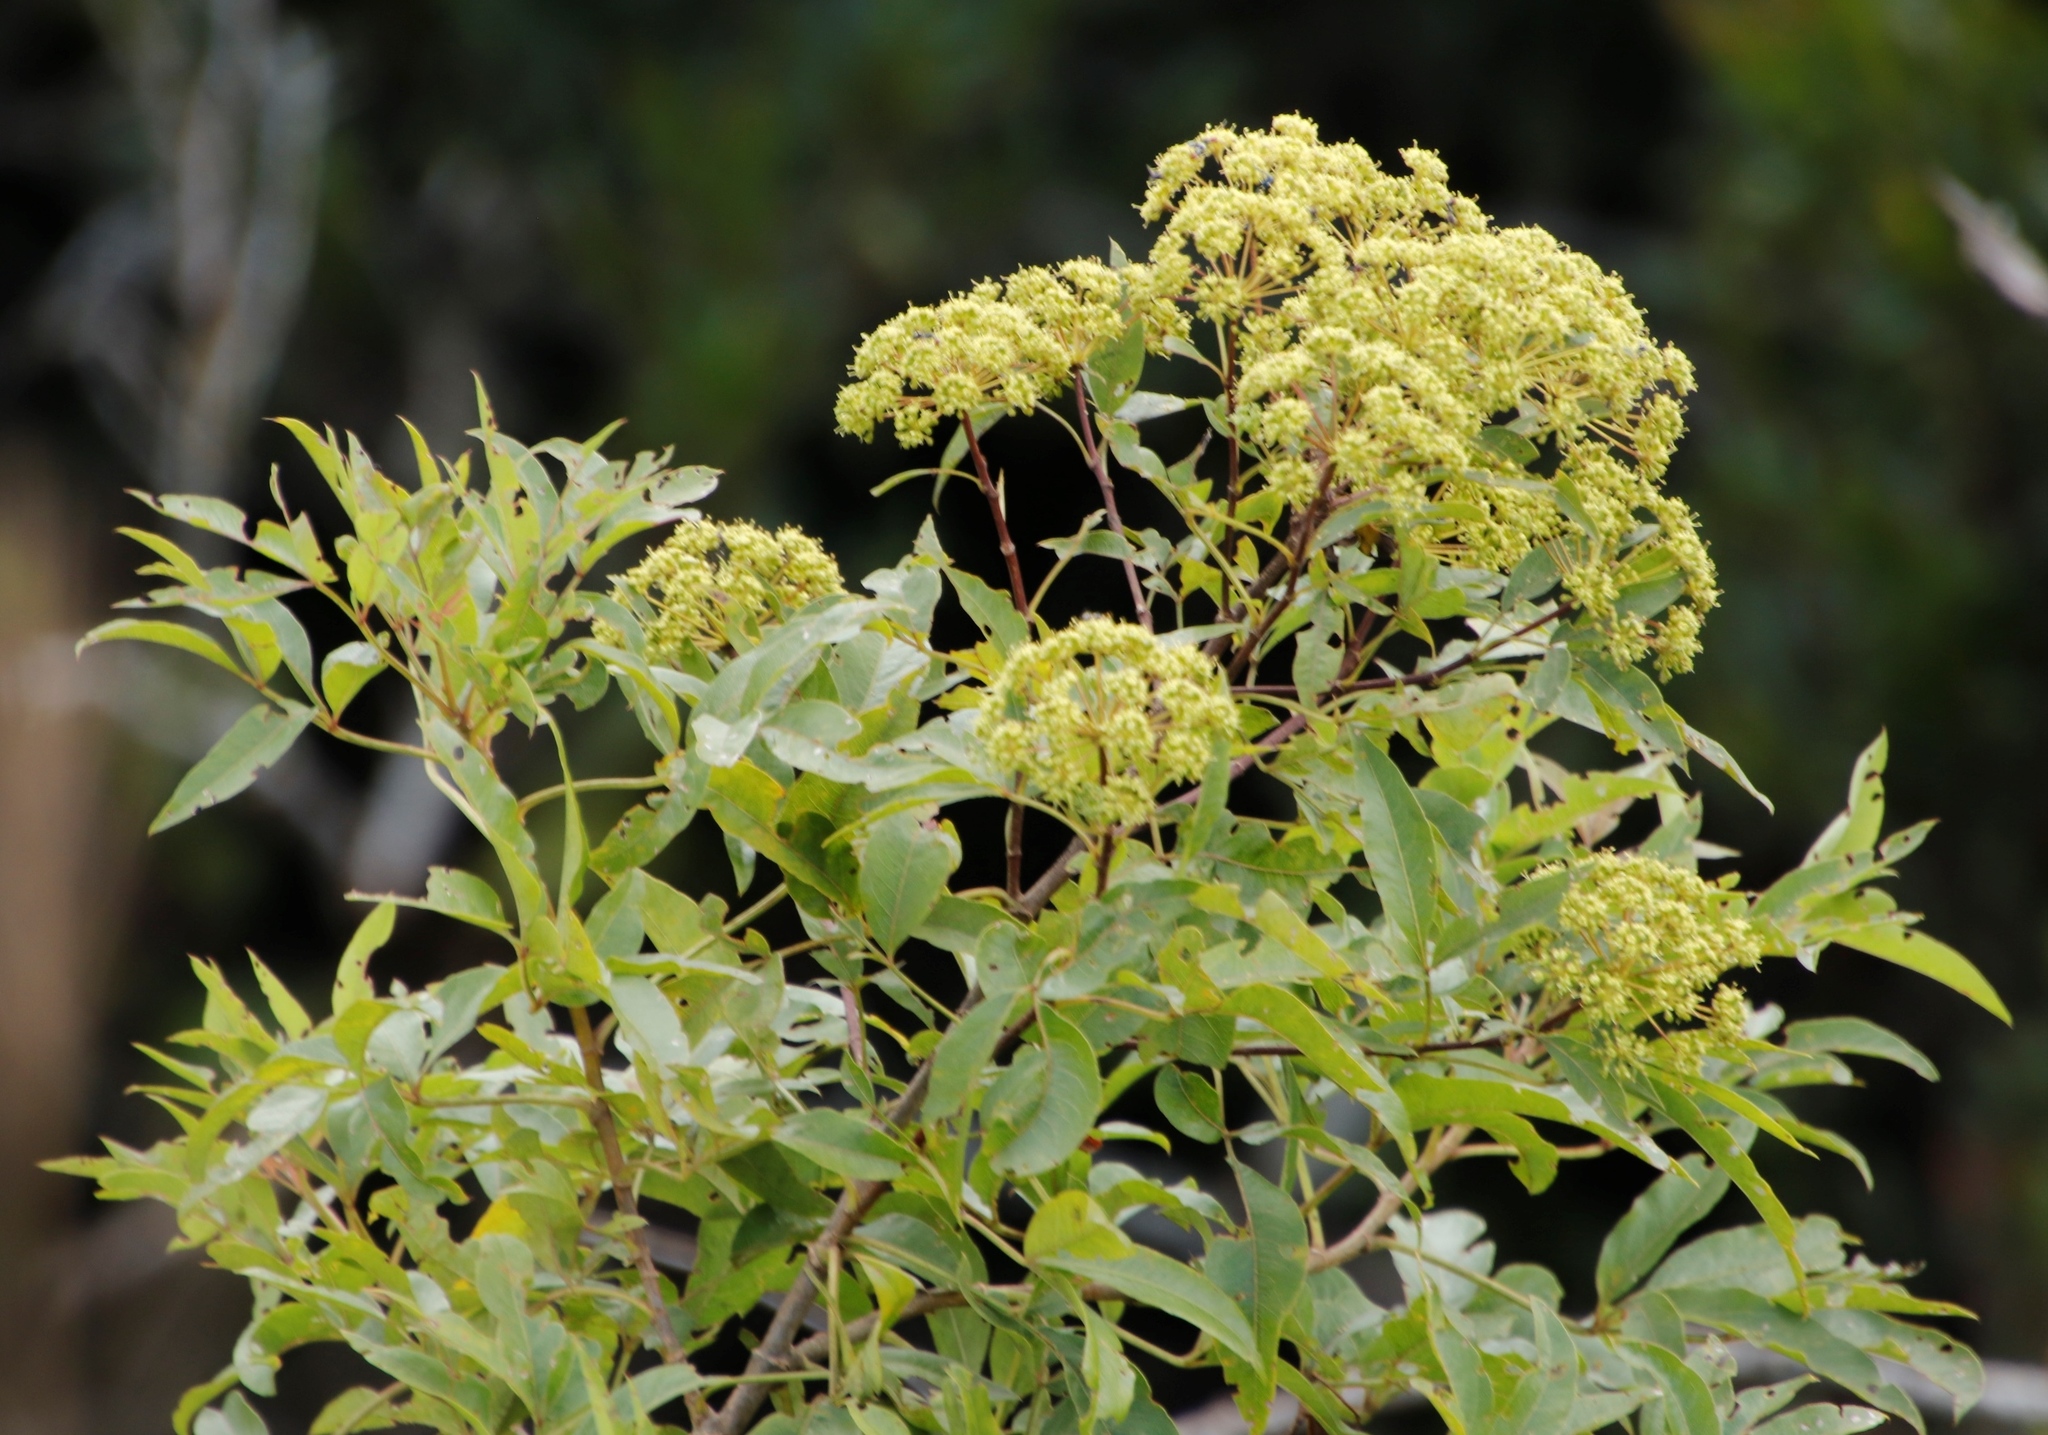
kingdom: Plantae
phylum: Tracheophyta
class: Magnoliopsida
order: Apiales
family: Apiaceae
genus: Heteromorpha
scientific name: Heteromorpha arborescens
